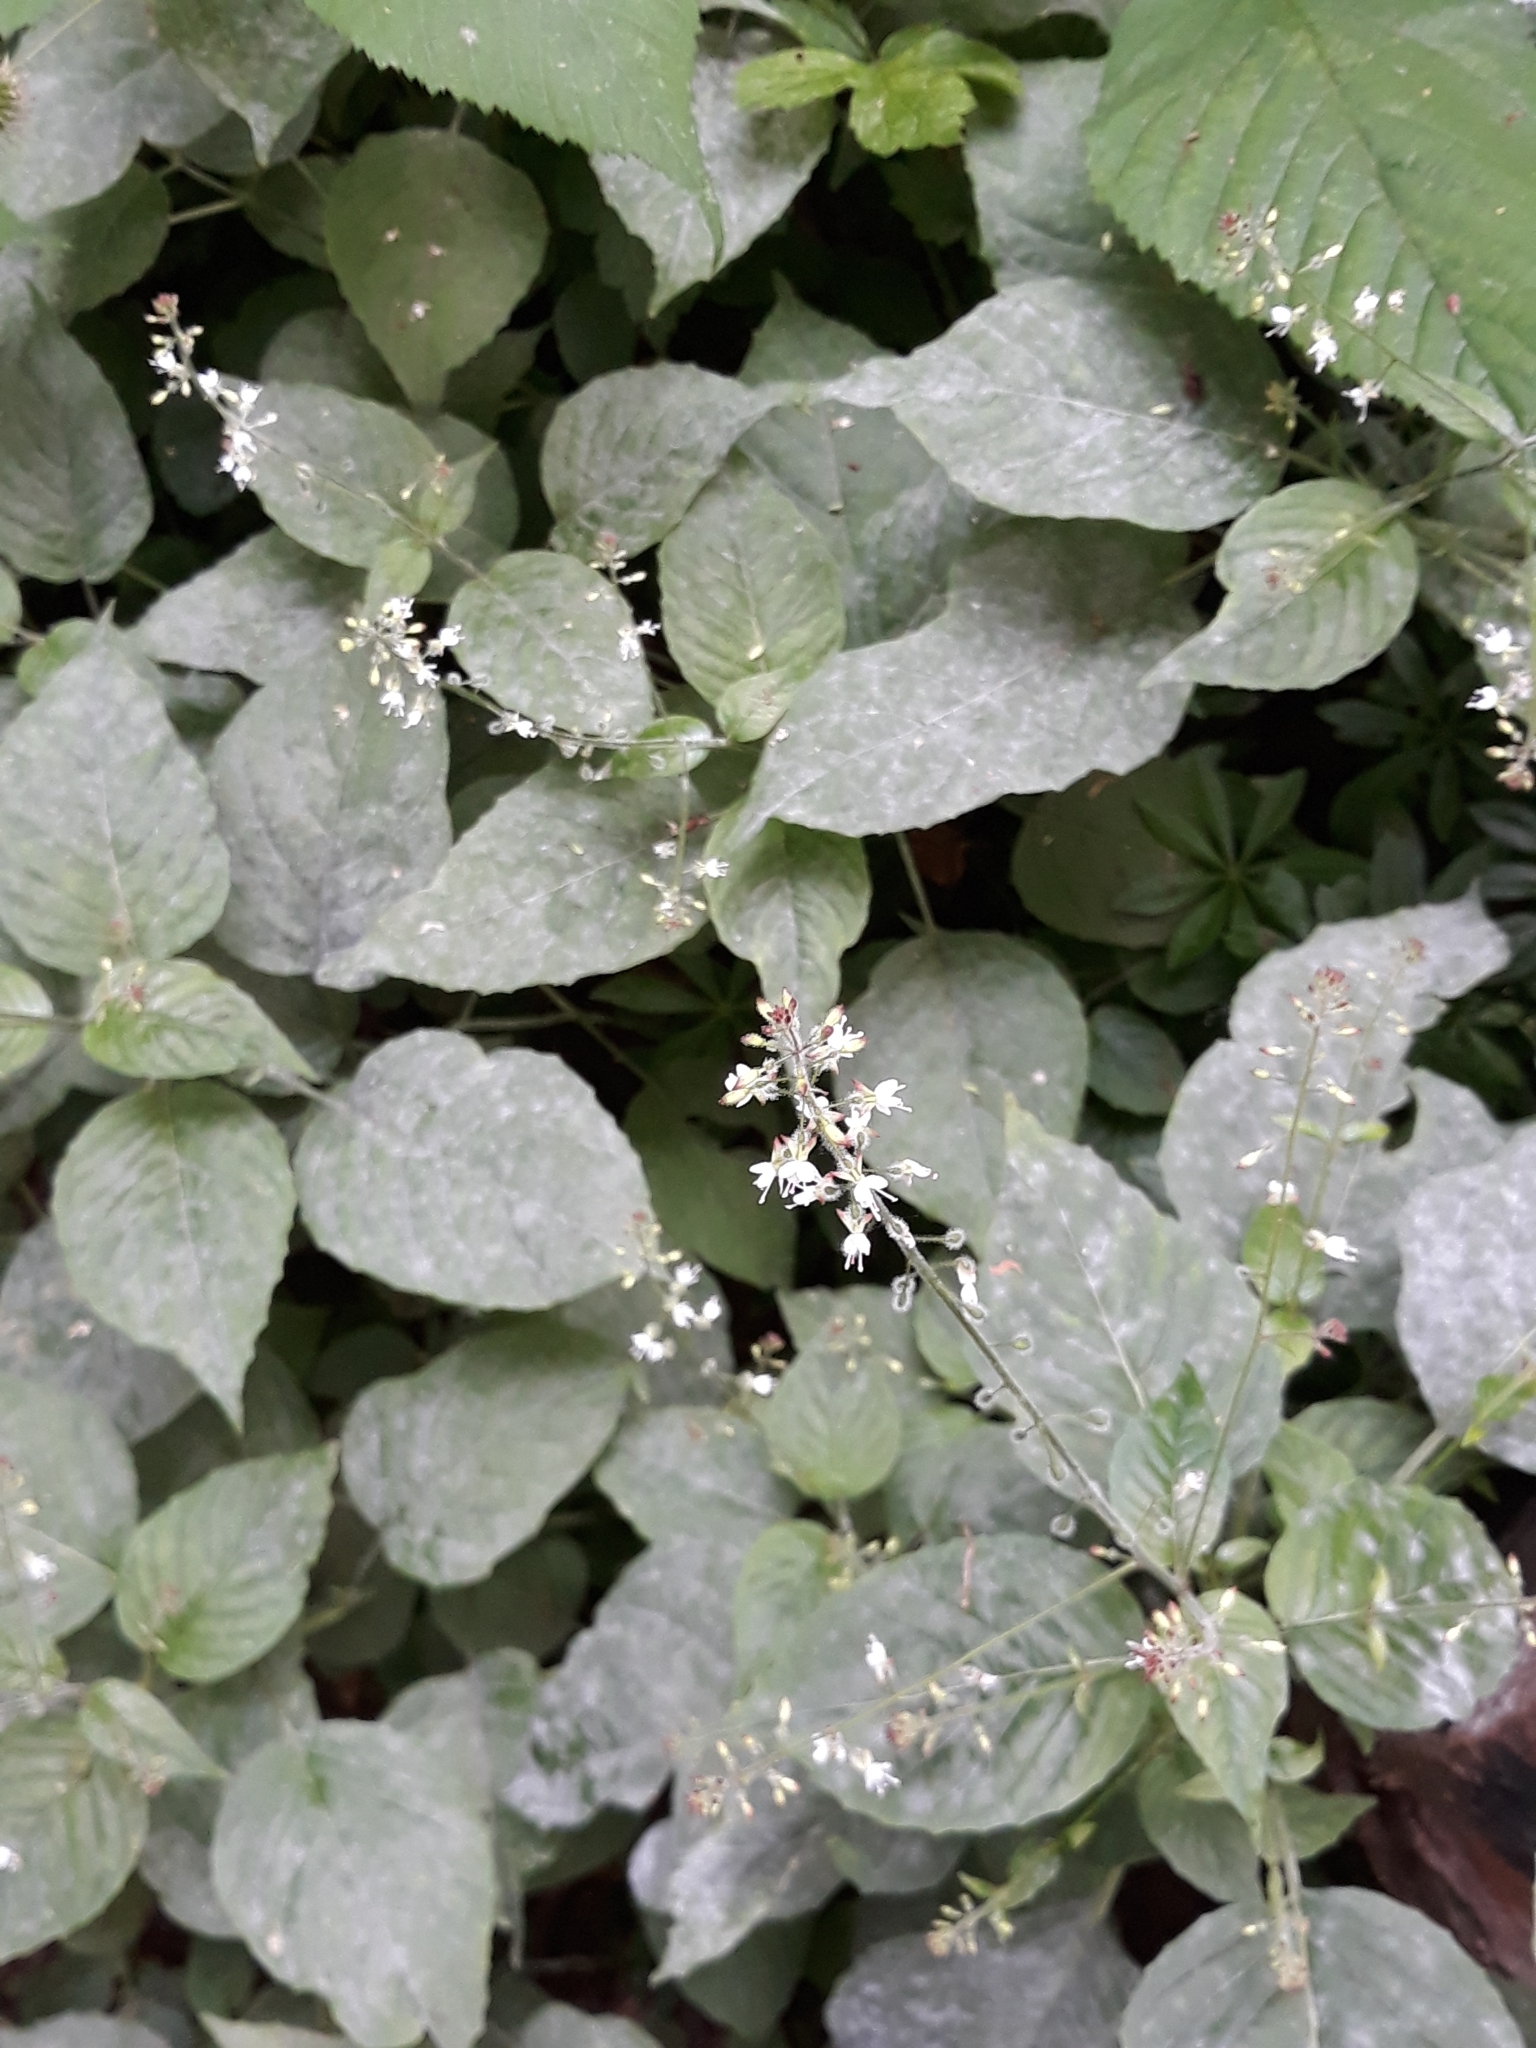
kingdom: Plantae
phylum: Tracheophyta
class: Magnoliopsida
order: Myrtales
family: Onagraceae
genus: Circaea
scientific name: Circaea lutetiana
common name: Enchanter's-nightshade
